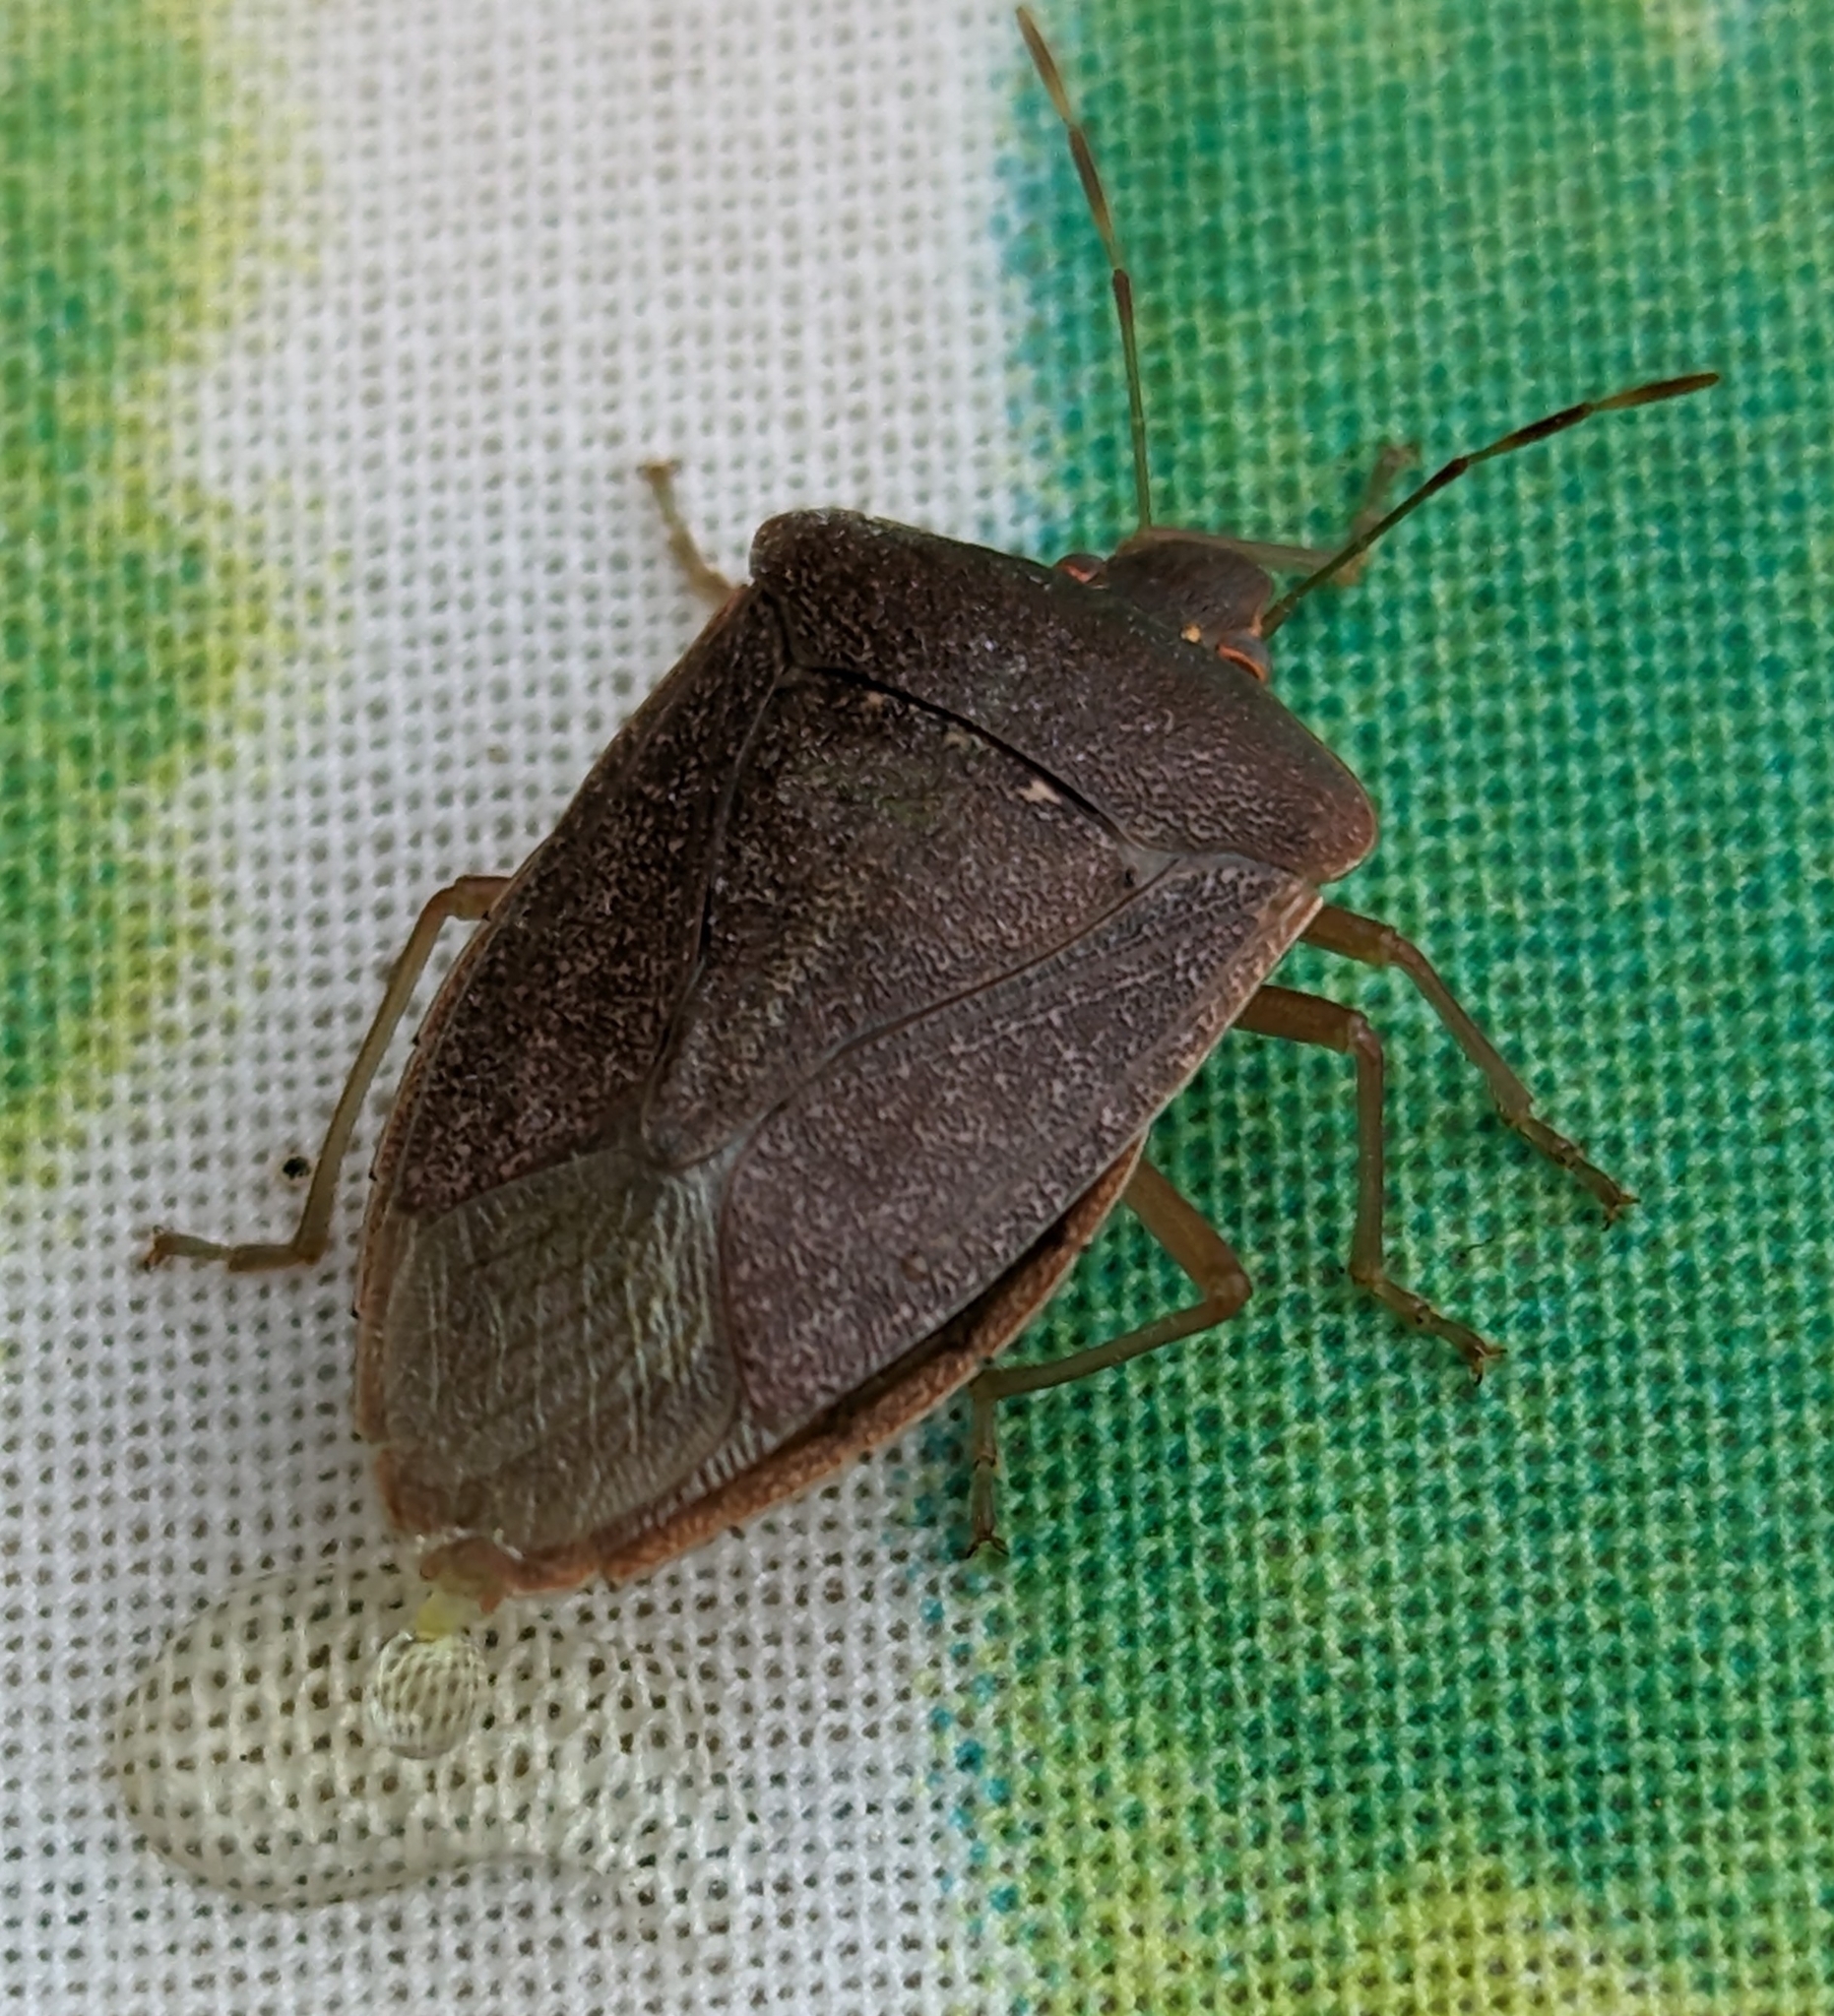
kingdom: Animalia
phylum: Arthropoda
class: Insecta
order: Hemiptera
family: Pentatomidae
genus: Nezara
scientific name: Nezara viridula
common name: Southern green stink bug
